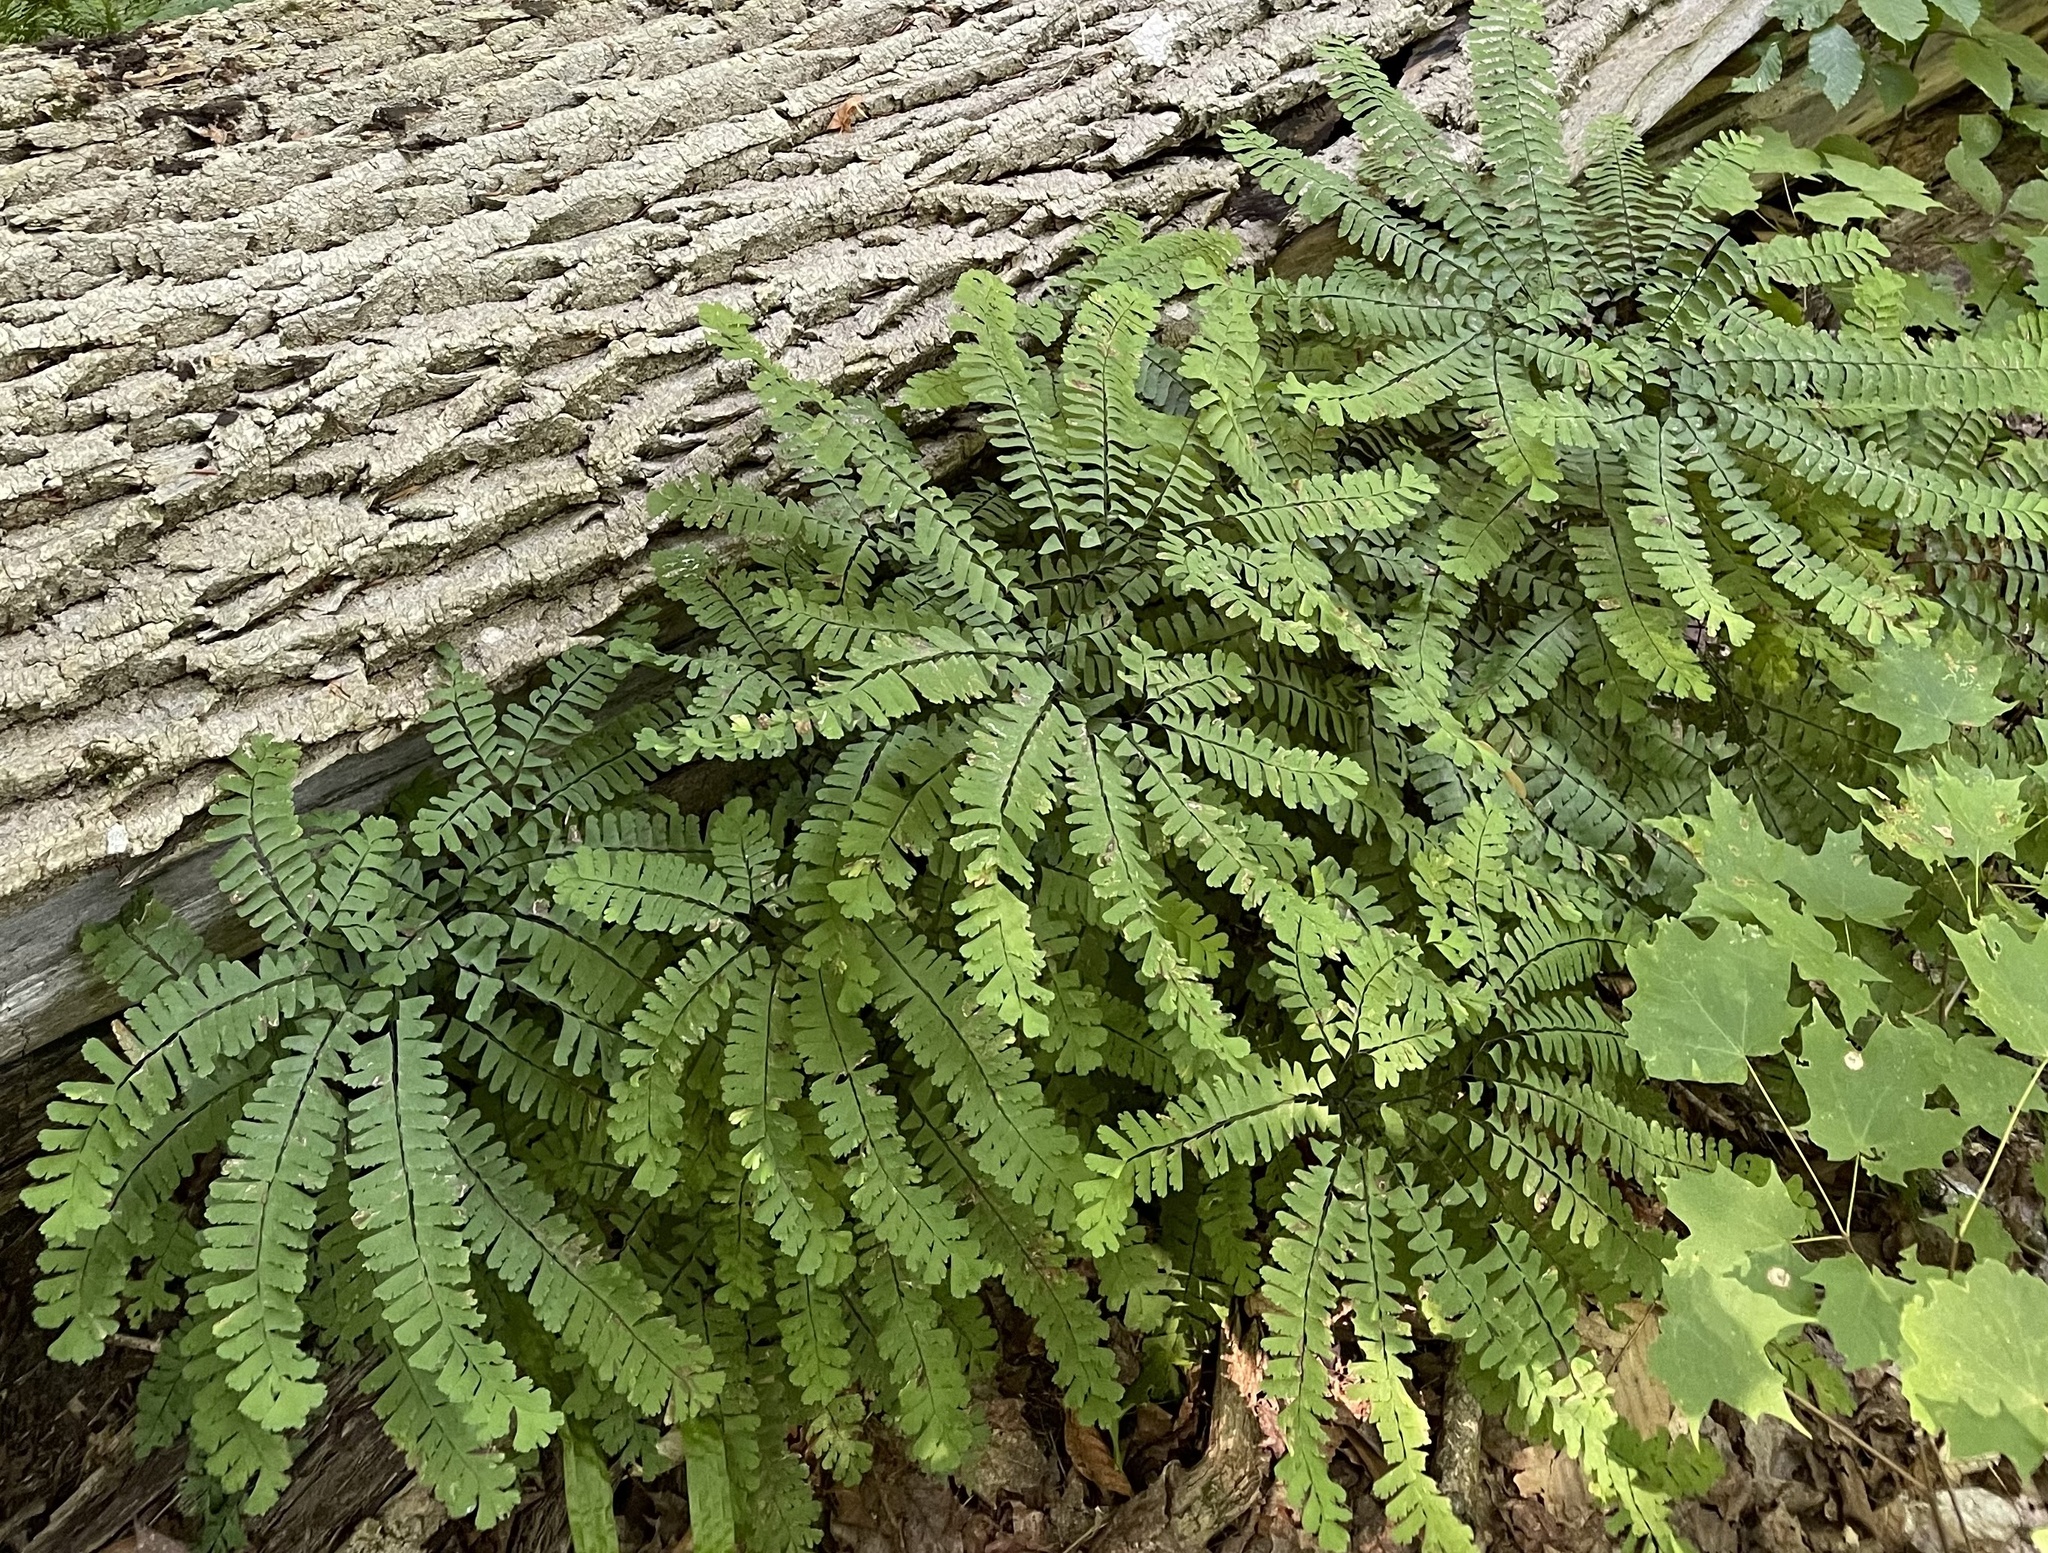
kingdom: Plantae
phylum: Tracheophyta
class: Polypodiopsida
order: Polypodiales
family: Pteridaceae
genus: Adiantum
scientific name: Adiantum pedatum
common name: Five-finger fern
